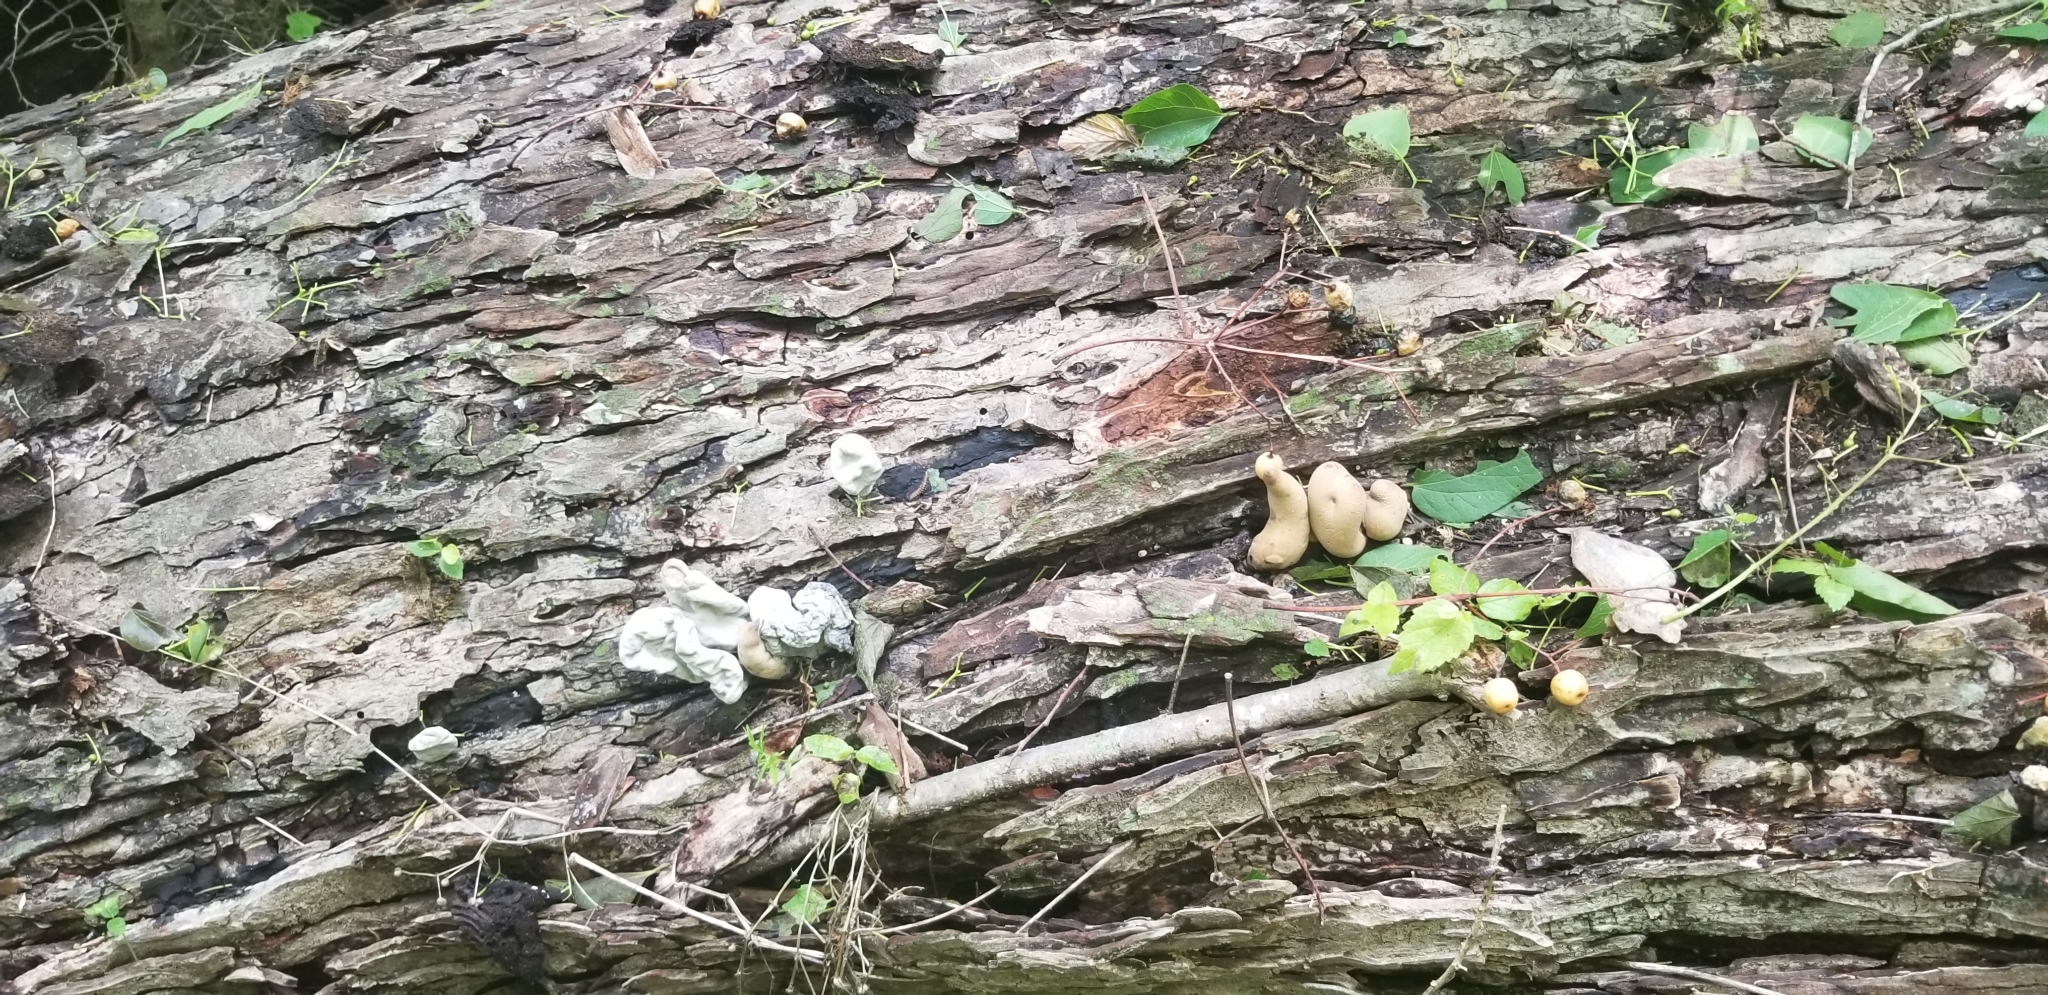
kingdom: Fungi
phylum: Ascomycota
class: Sordariomycetes
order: Xylariales
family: Xylariaceae
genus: Xylaria
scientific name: Xylaria polymorpha
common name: Dead man's fingers
